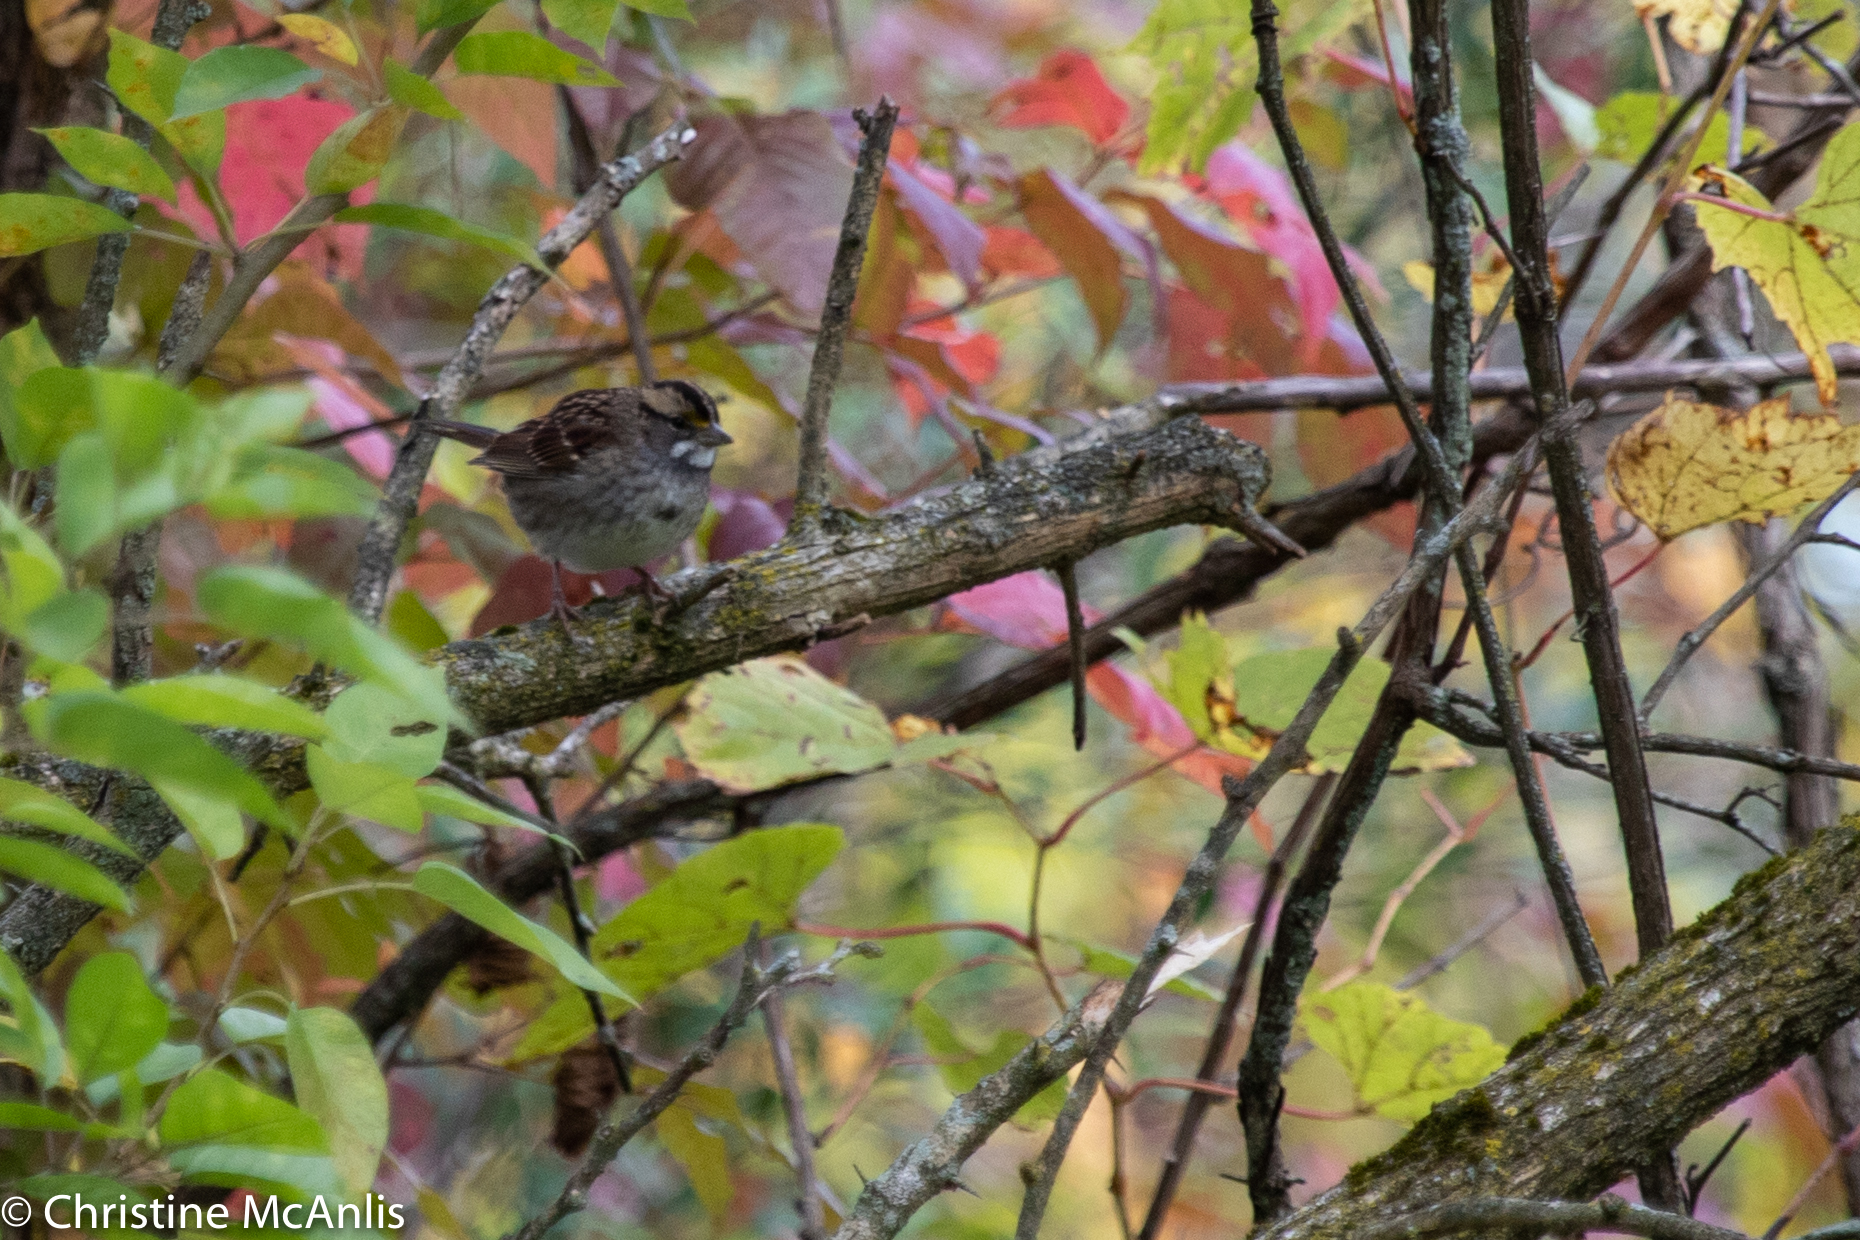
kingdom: Animalia
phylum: Chordata
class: Aves
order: Passeriformes
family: Passerellidae
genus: Zonotrichia
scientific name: Zonotrichia albicollis
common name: White-throated sparrow
